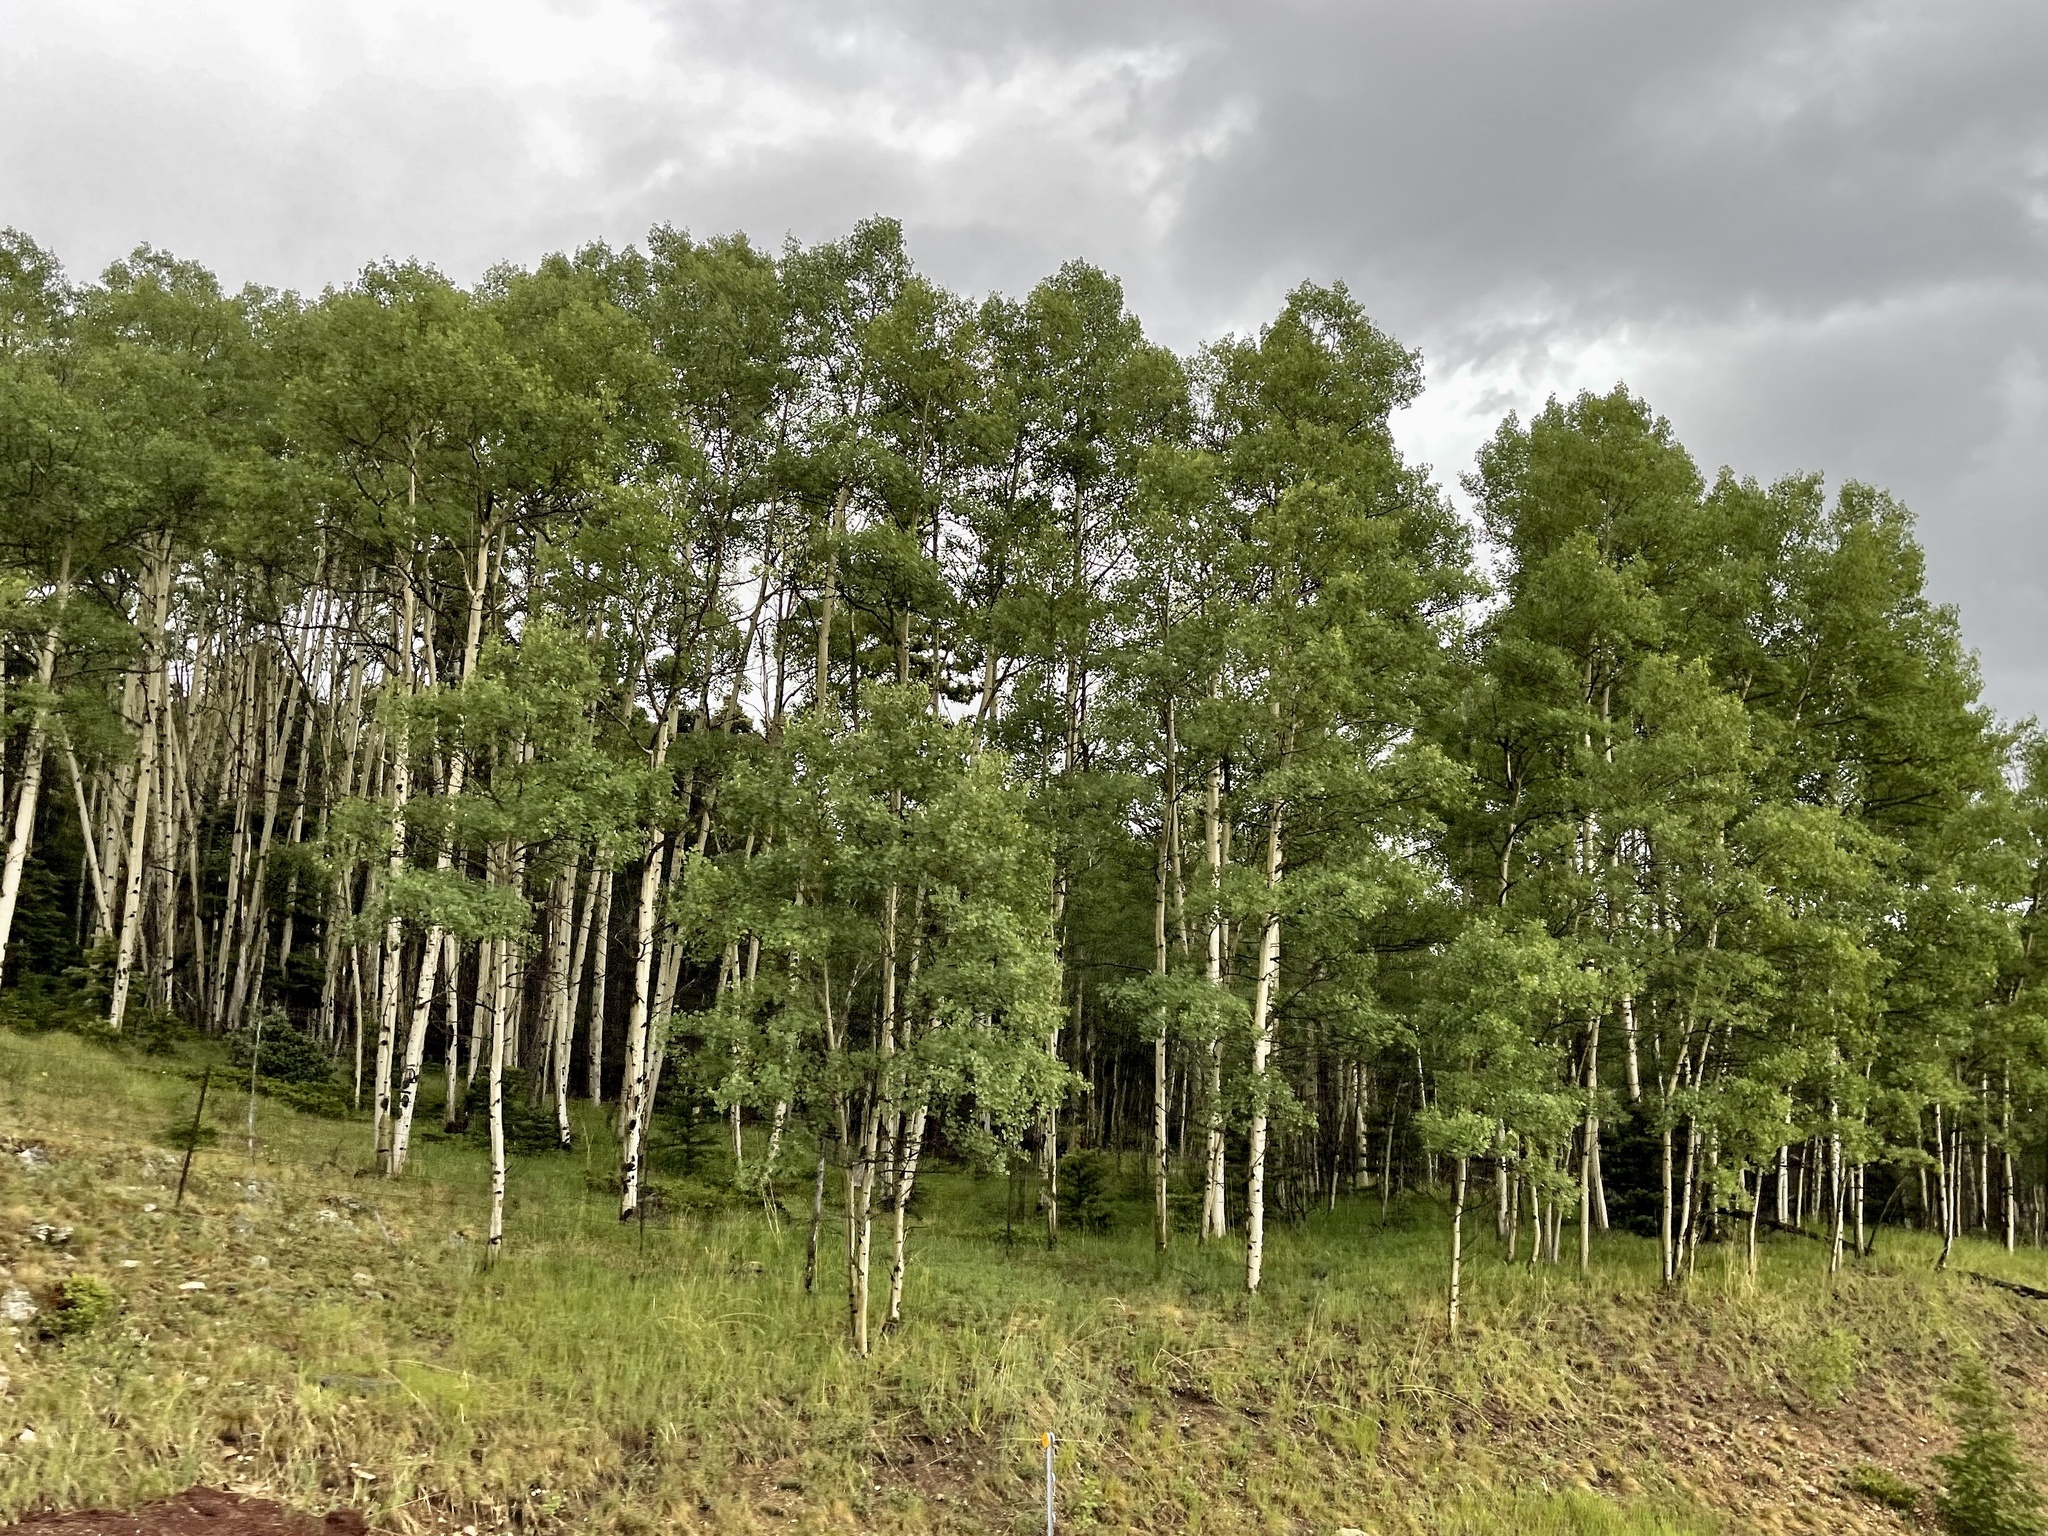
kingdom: Plantae
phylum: Tracheophyta
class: Magnoliopsida
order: Malpighiales
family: Salicaceae
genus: Populus
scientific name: Populus tremuloides
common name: Quaking aspen
